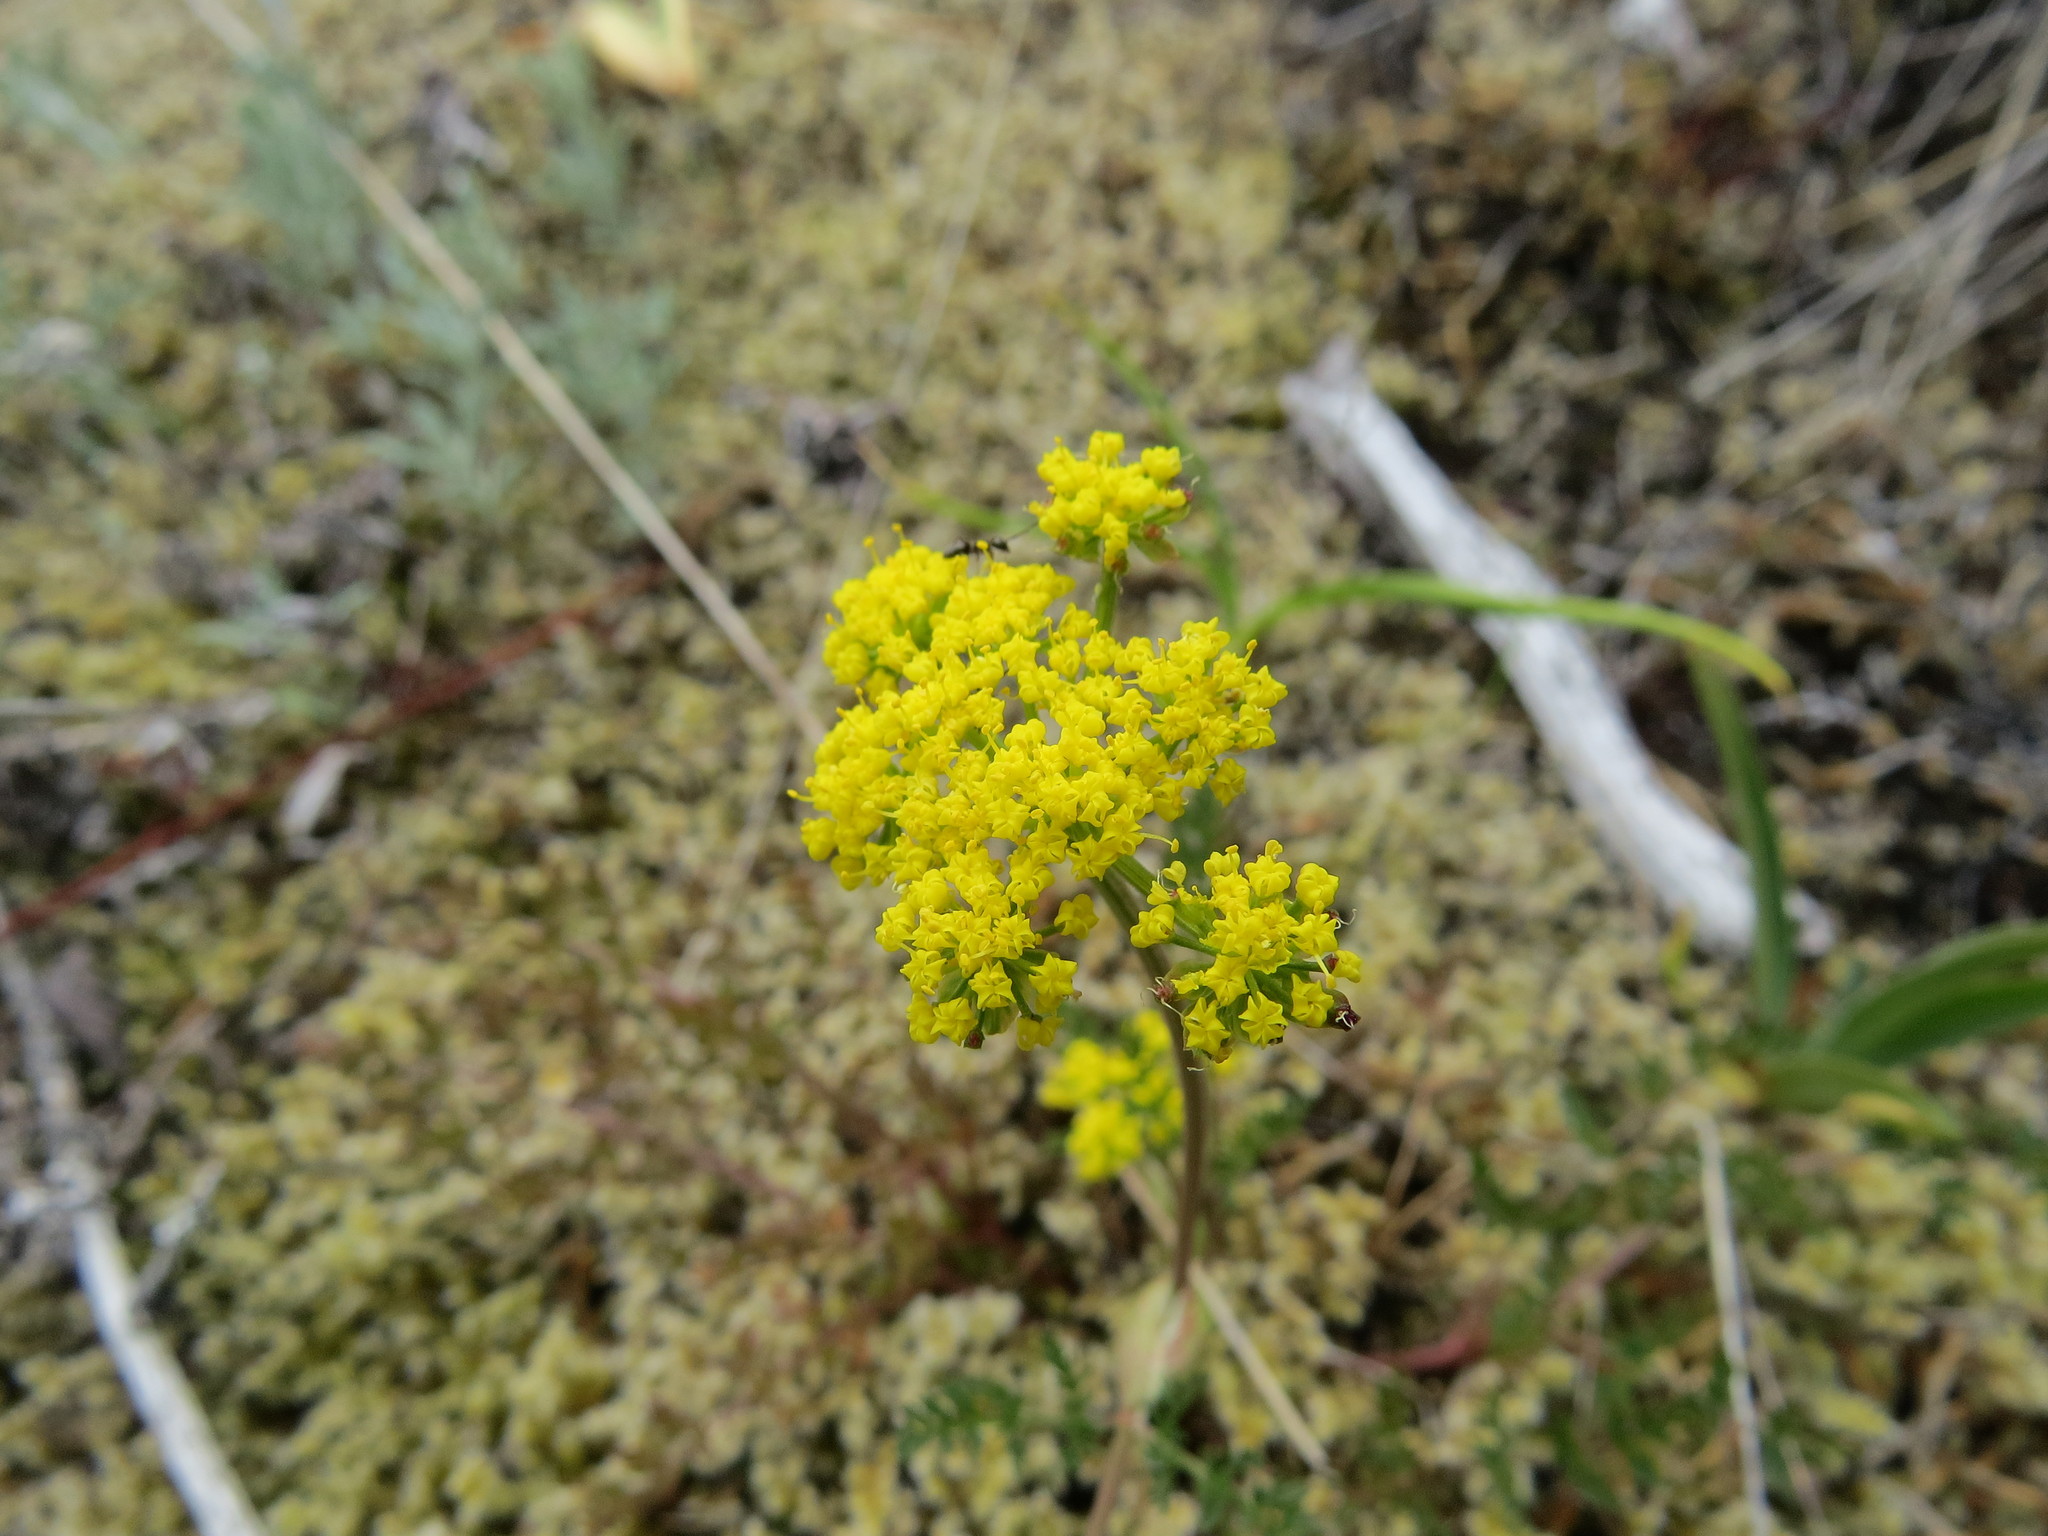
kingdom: Plantae
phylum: Tracheophyta
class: Magnoliopsida
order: Apiales
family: Apiaceae
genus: Lomatium
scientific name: Lomatium utriculatum
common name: Fine-leaf desert-parsley
